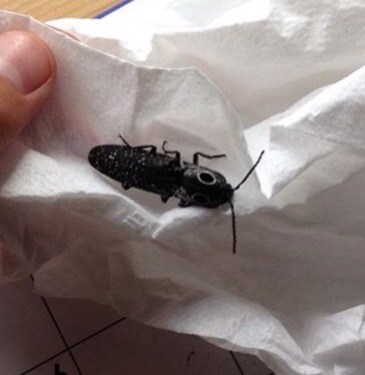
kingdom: Animalia
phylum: Arthropoda
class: Insecta
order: Coleoptera
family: Elateridae
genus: Alaus
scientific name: Alaus oculatus
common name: Eastern eyed click beetle
